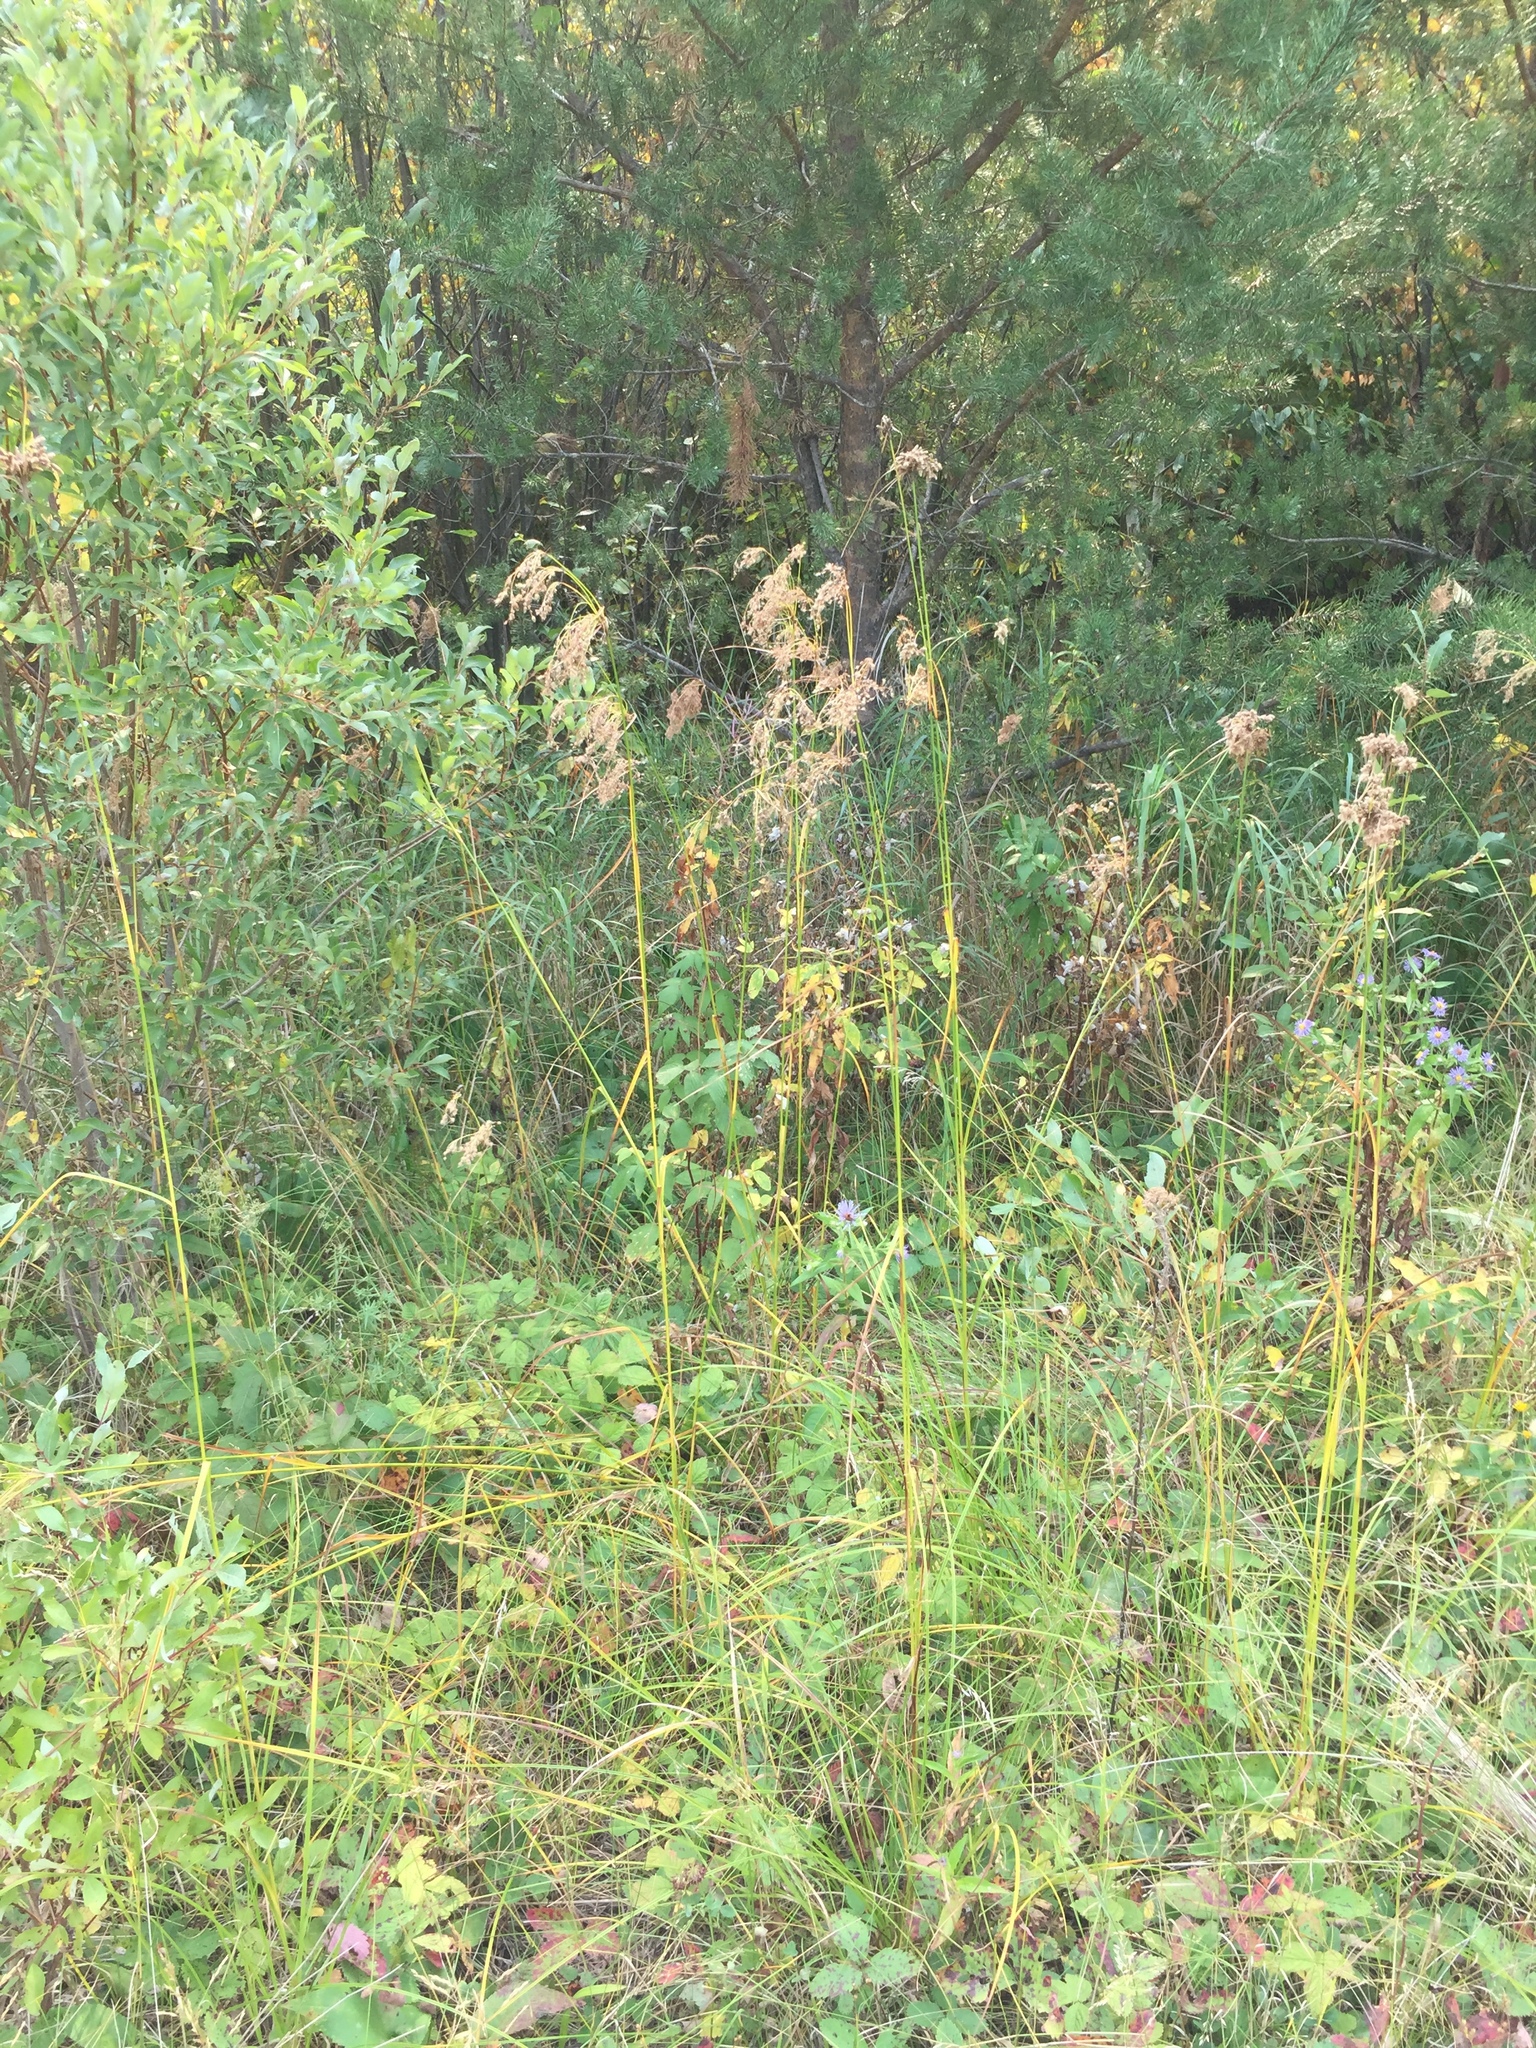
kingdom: Plantae
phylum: Tracheophyta
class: Liliopsida
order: Poales
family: Cyperaceae
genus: Scirpus
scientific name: Scirpus cyperinus
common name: Black-sheathed bulrush
